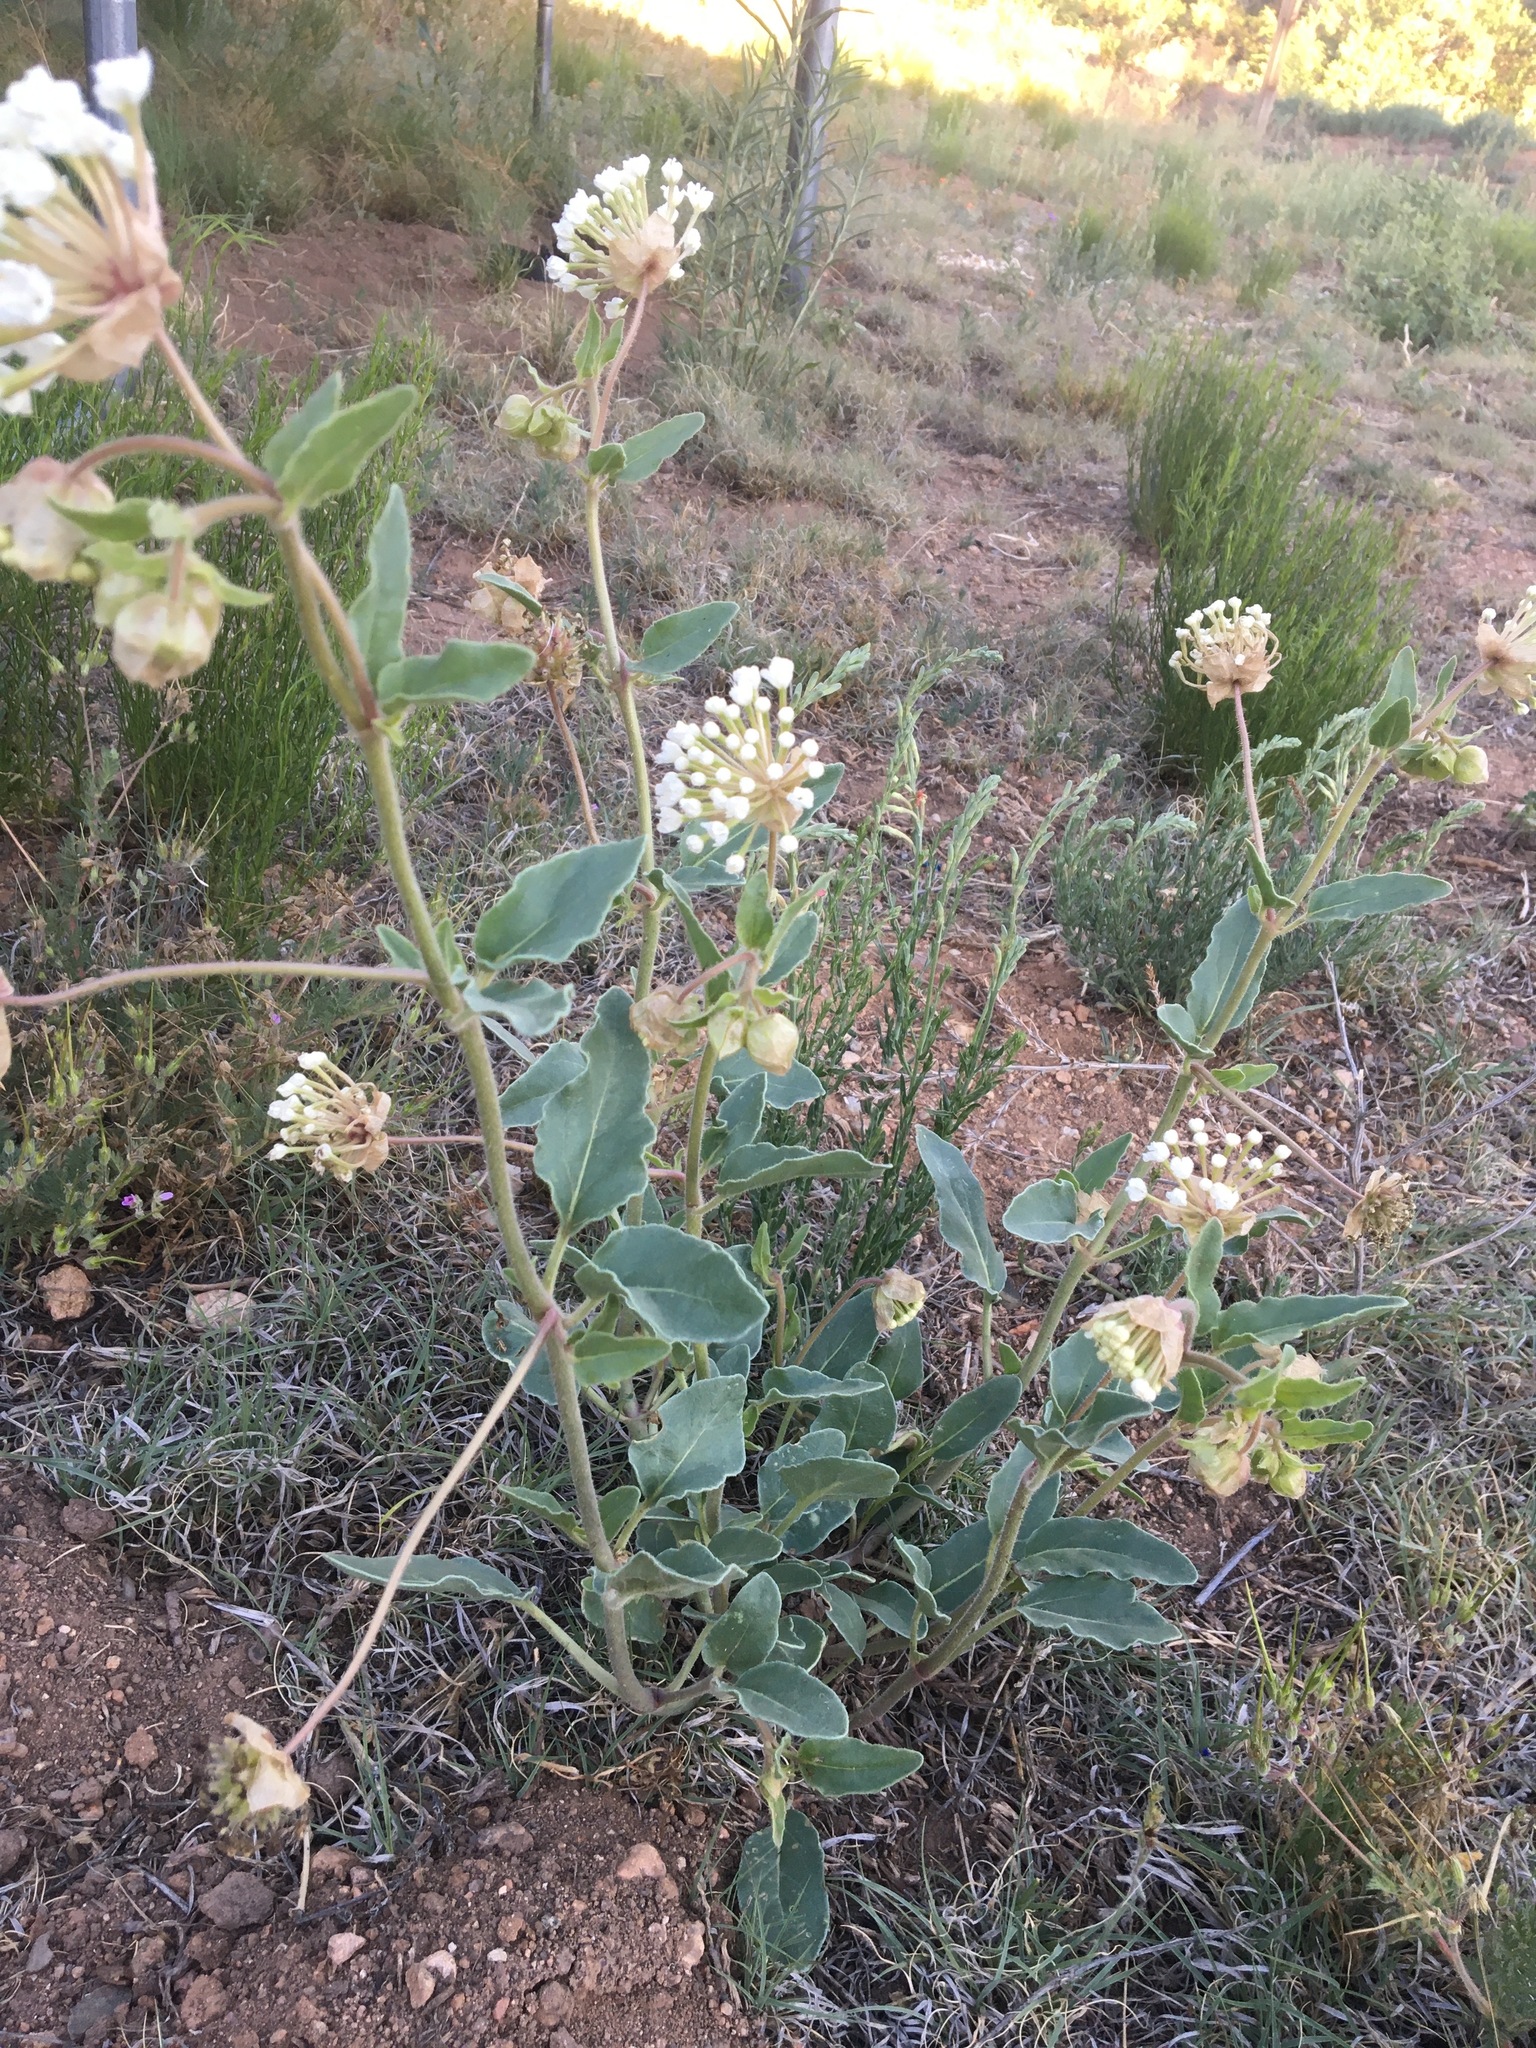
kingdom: Plantae
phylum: Tracheophyta
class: Magnoliopsida
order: Caryophyllales
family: Nyctaginaceae
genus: Abronia
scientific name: Abronia fragrans
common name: Fragrant sand-verbena
